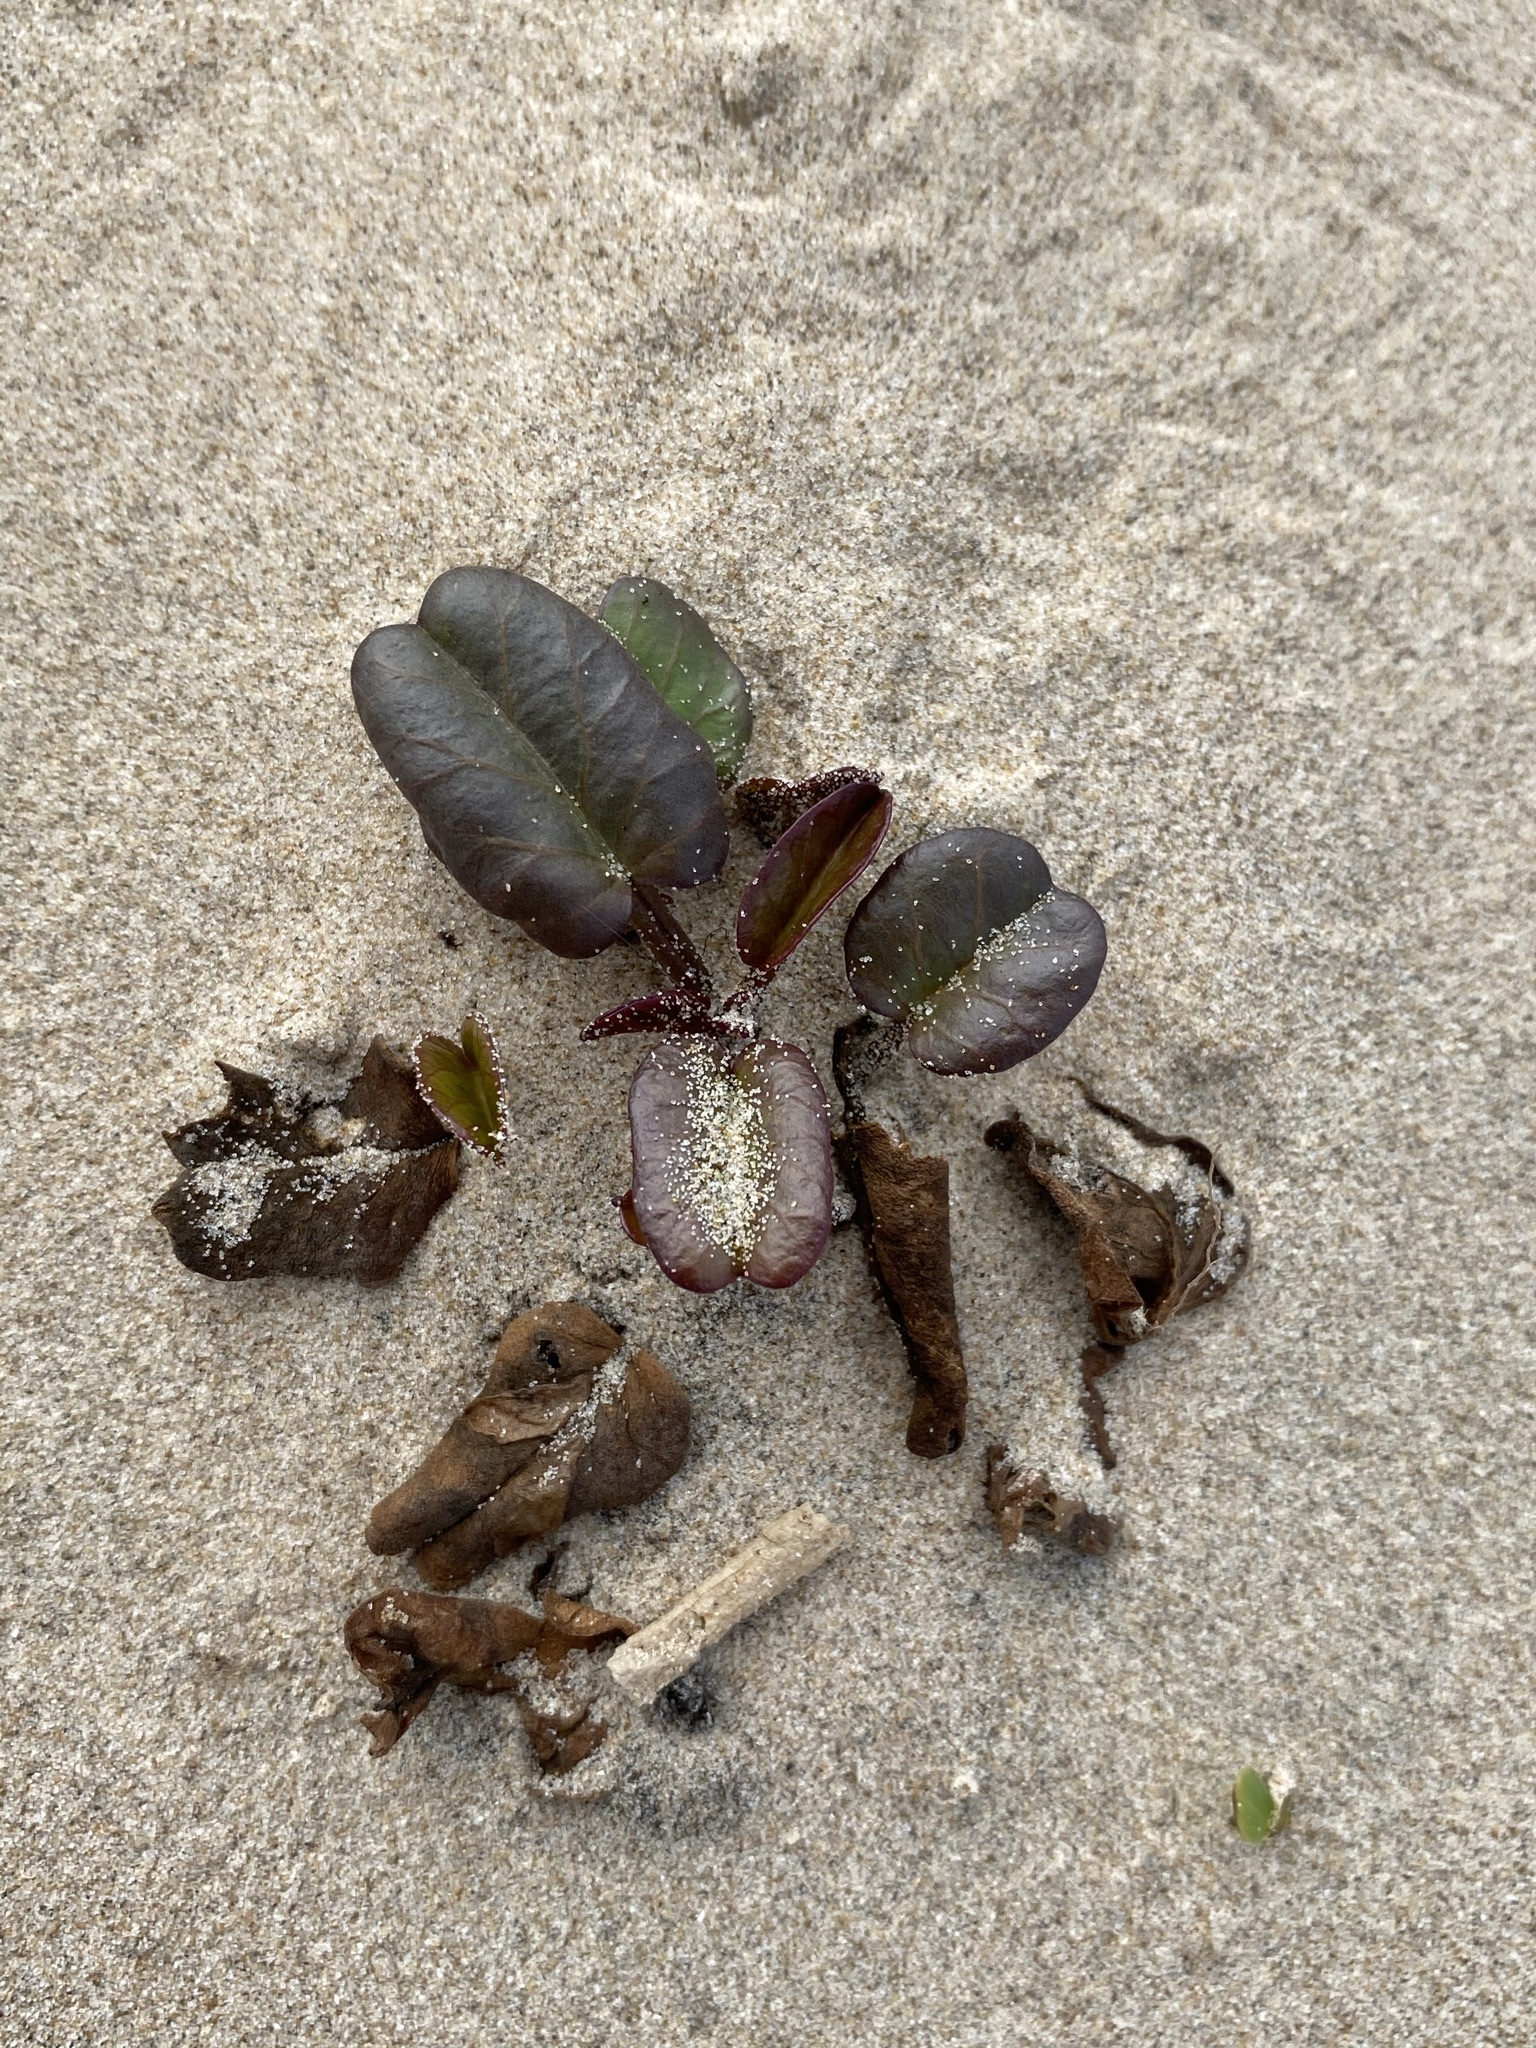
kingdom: Plantae
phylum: Tracheophyta
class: Magnoliopsida
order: Solanales
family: Convolvulaceae
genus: Ipomoea
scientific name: Ipomoea imperati
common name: Fiddle-leaf morning-glory
